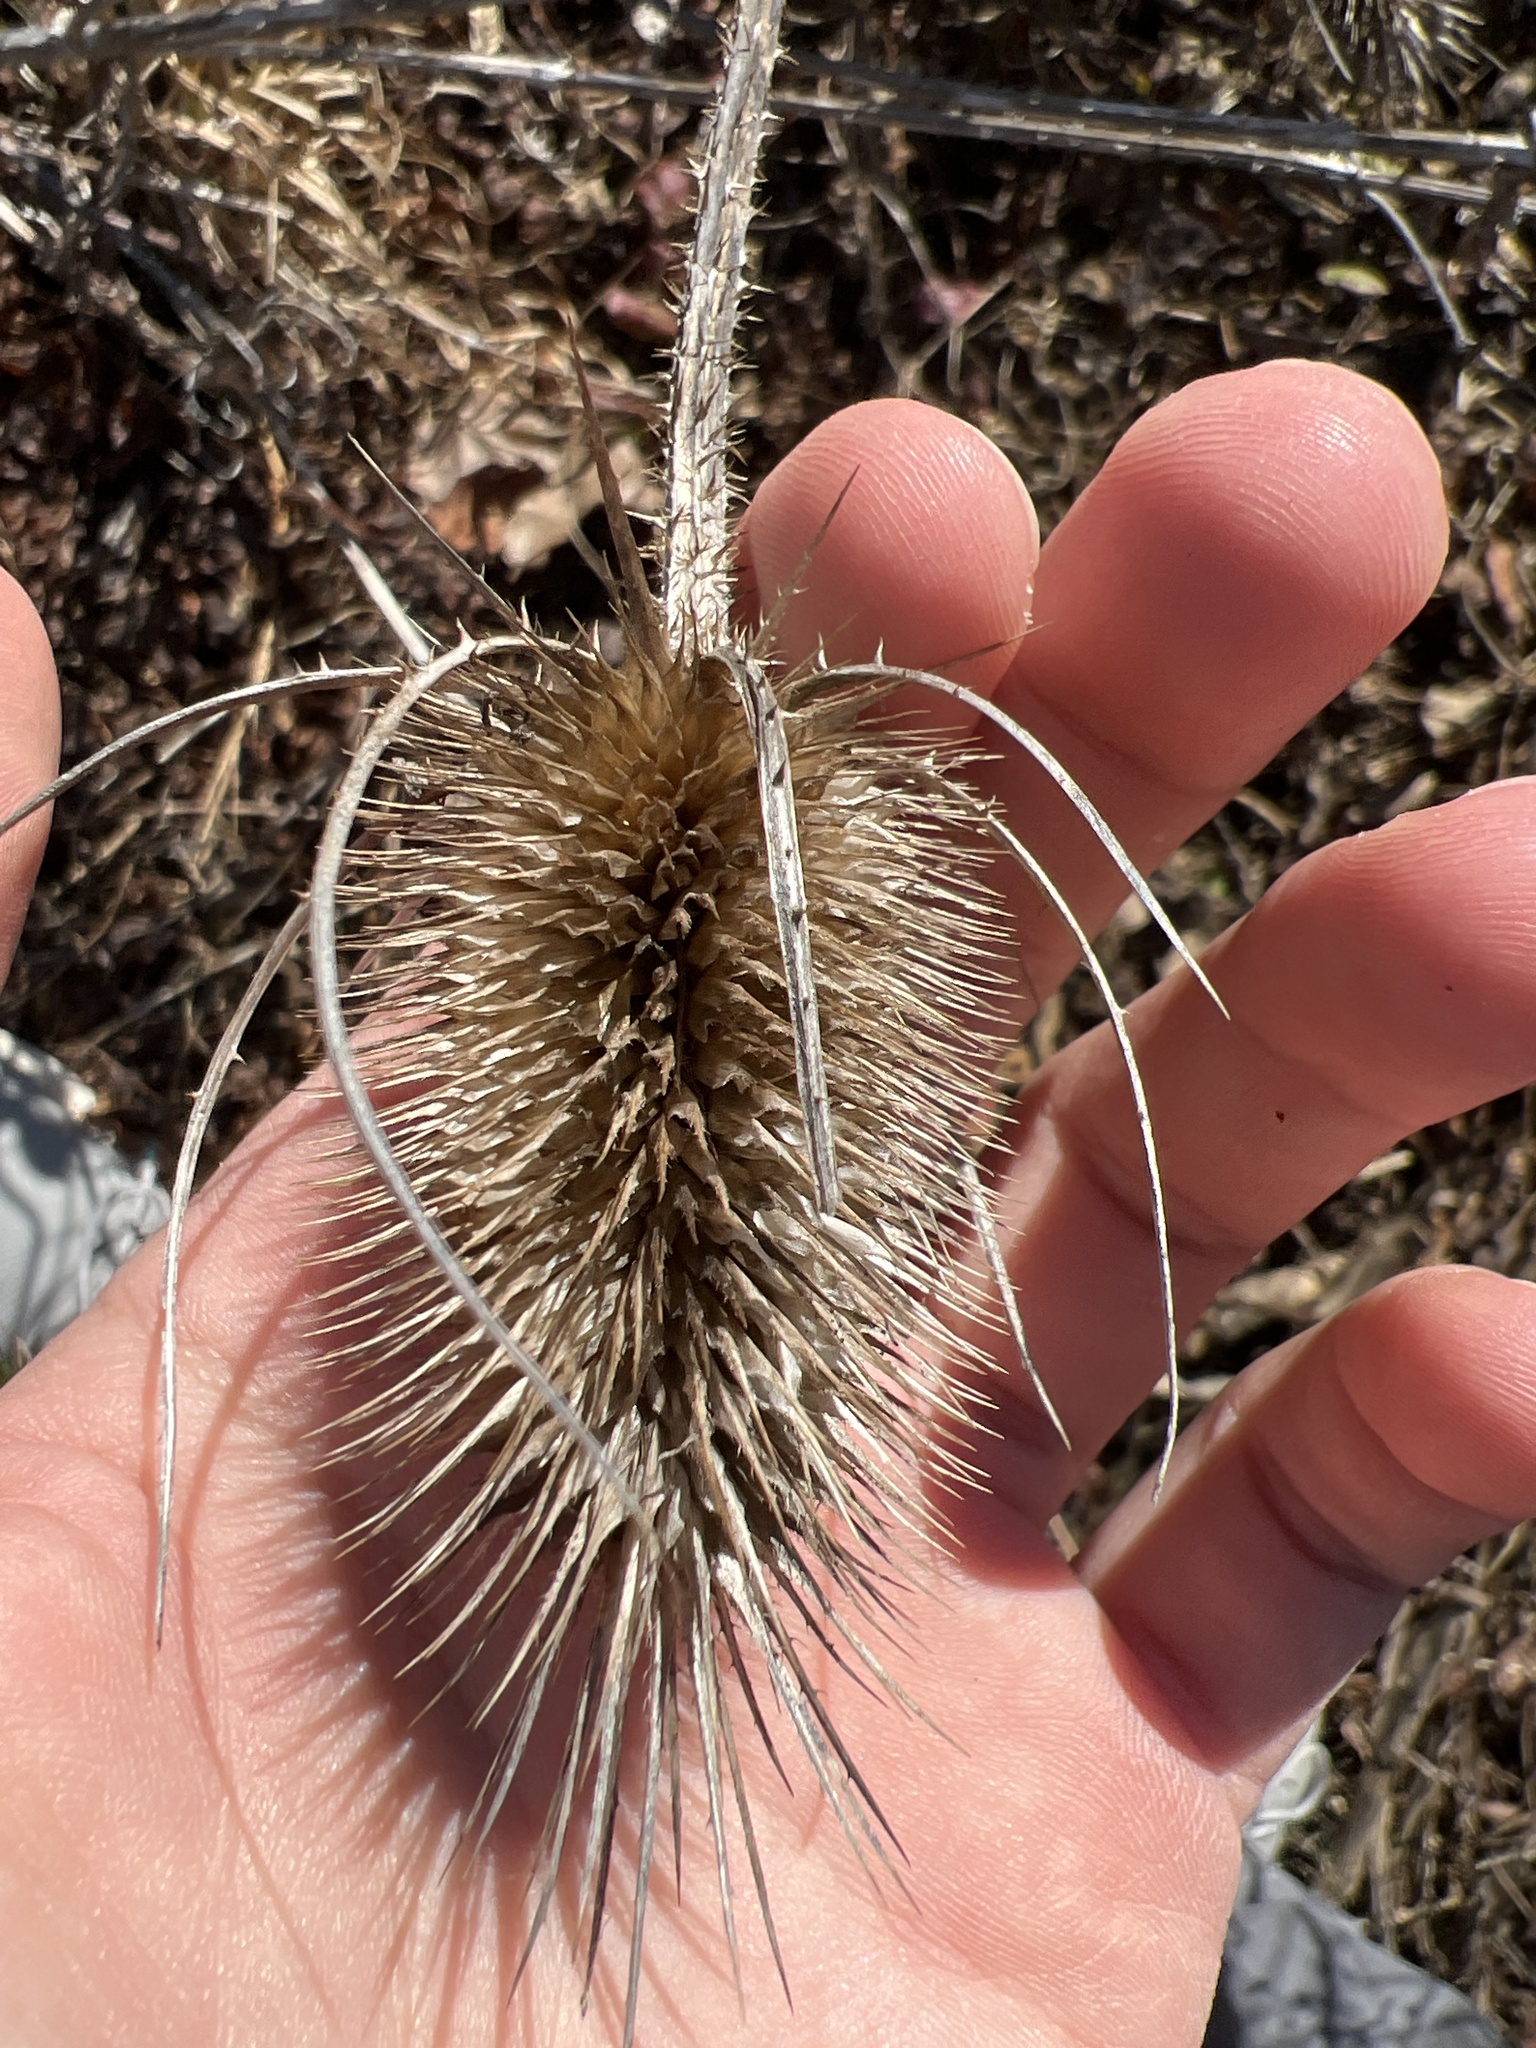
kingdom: Plantae
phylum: Tracheophyta
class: Magnoliopsida
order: Dipsacales
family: Caprifoliaceae
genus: Dipsacus
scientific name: Dipsacus fullonum
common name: Teasel
